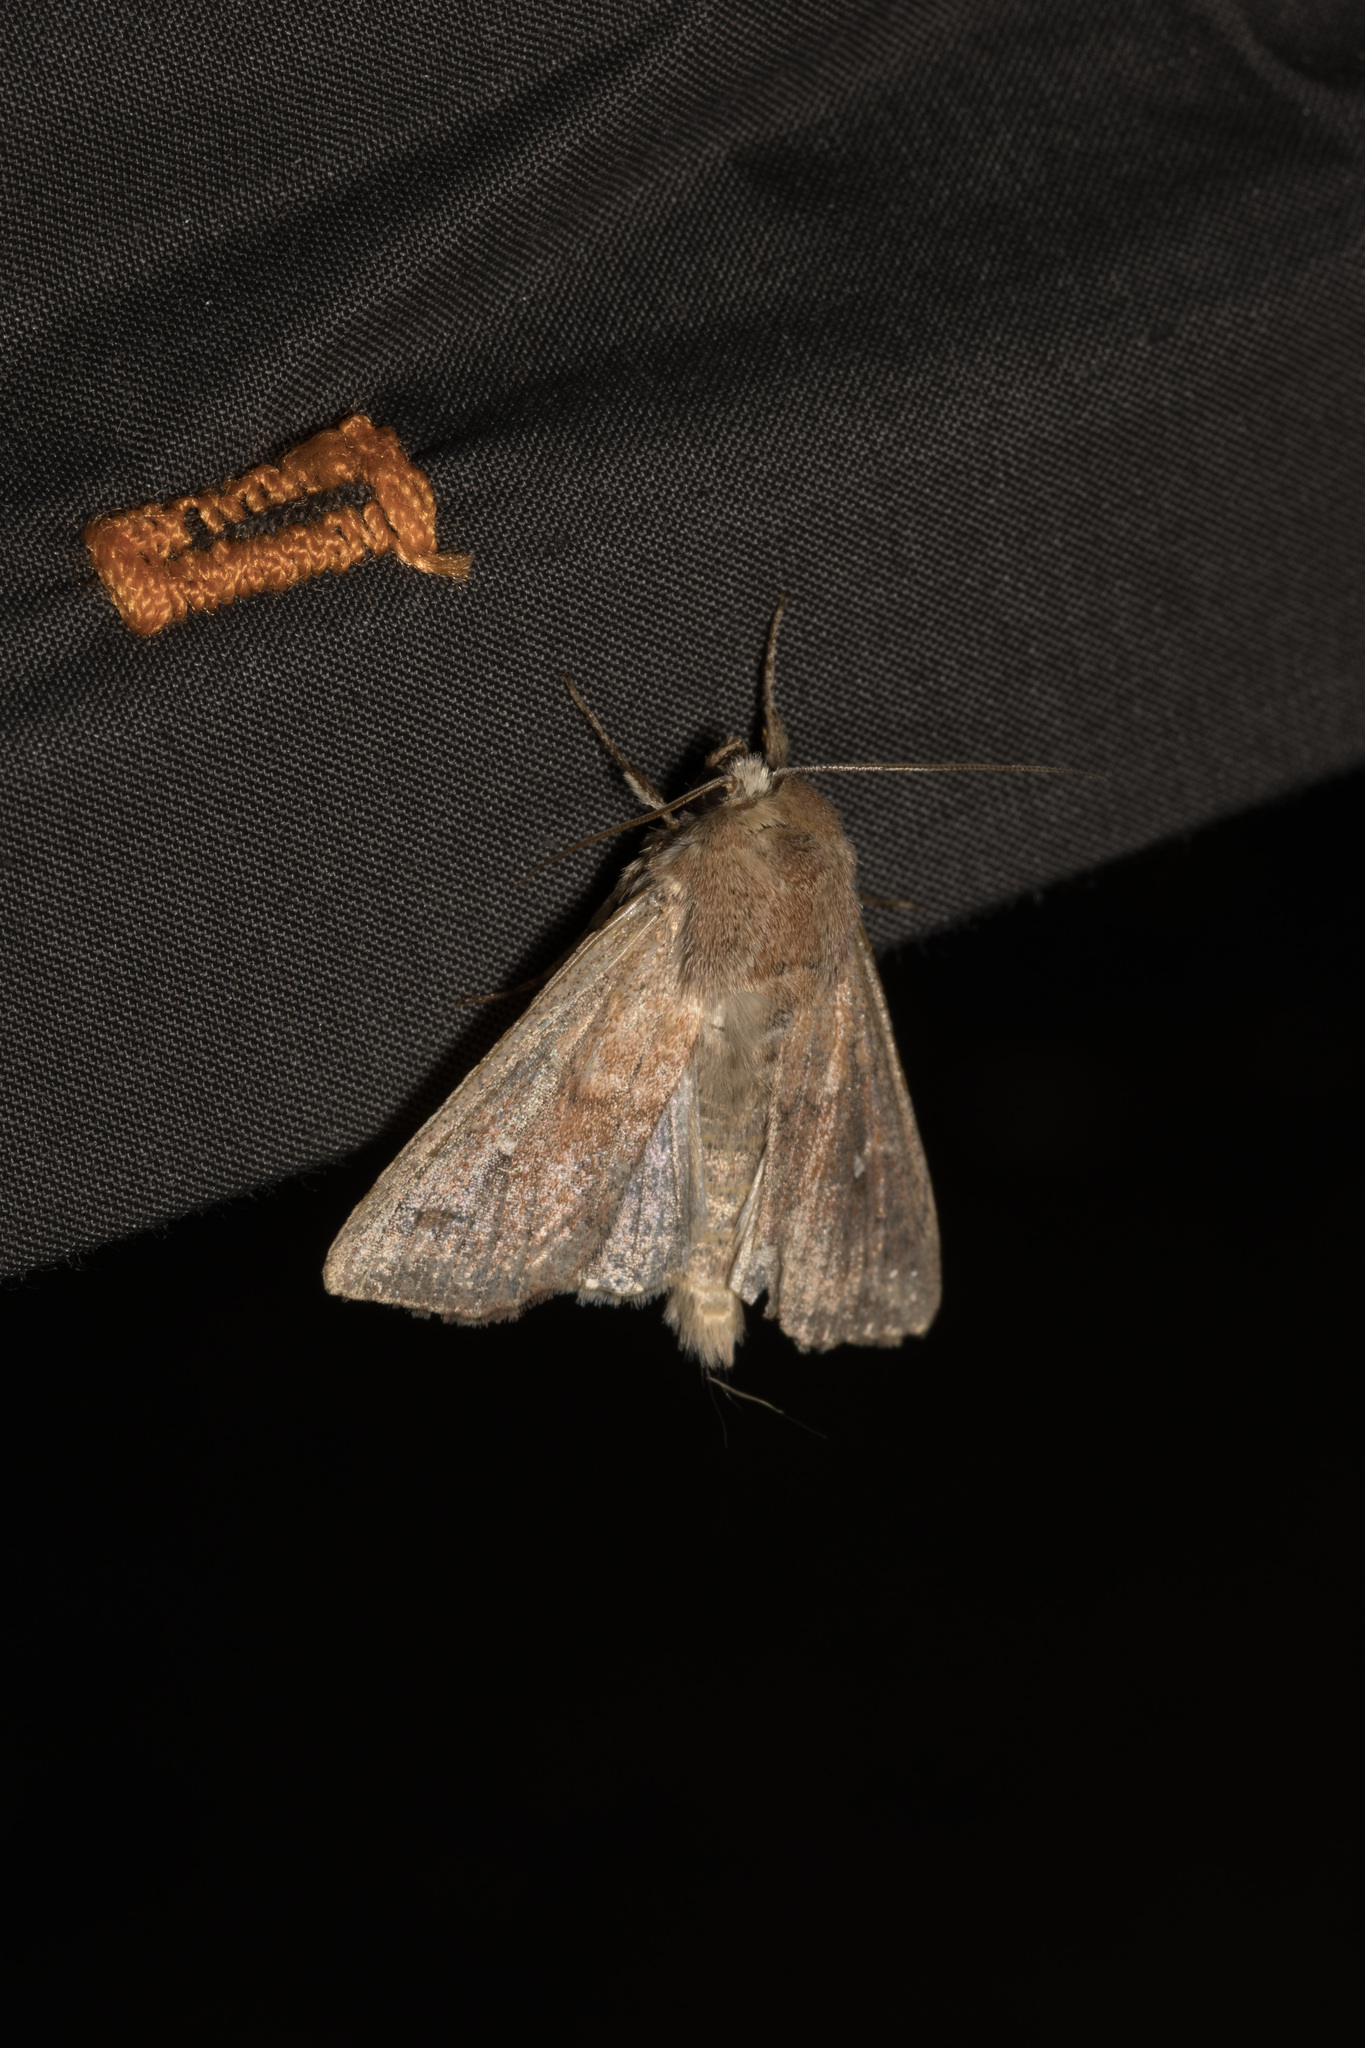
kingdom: Animalia
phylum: Arthropoda
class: Insecta
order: Lepidoptera
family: Noctuidae
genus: Mythimna
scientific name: Mythimna albipuncta
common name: White-point
